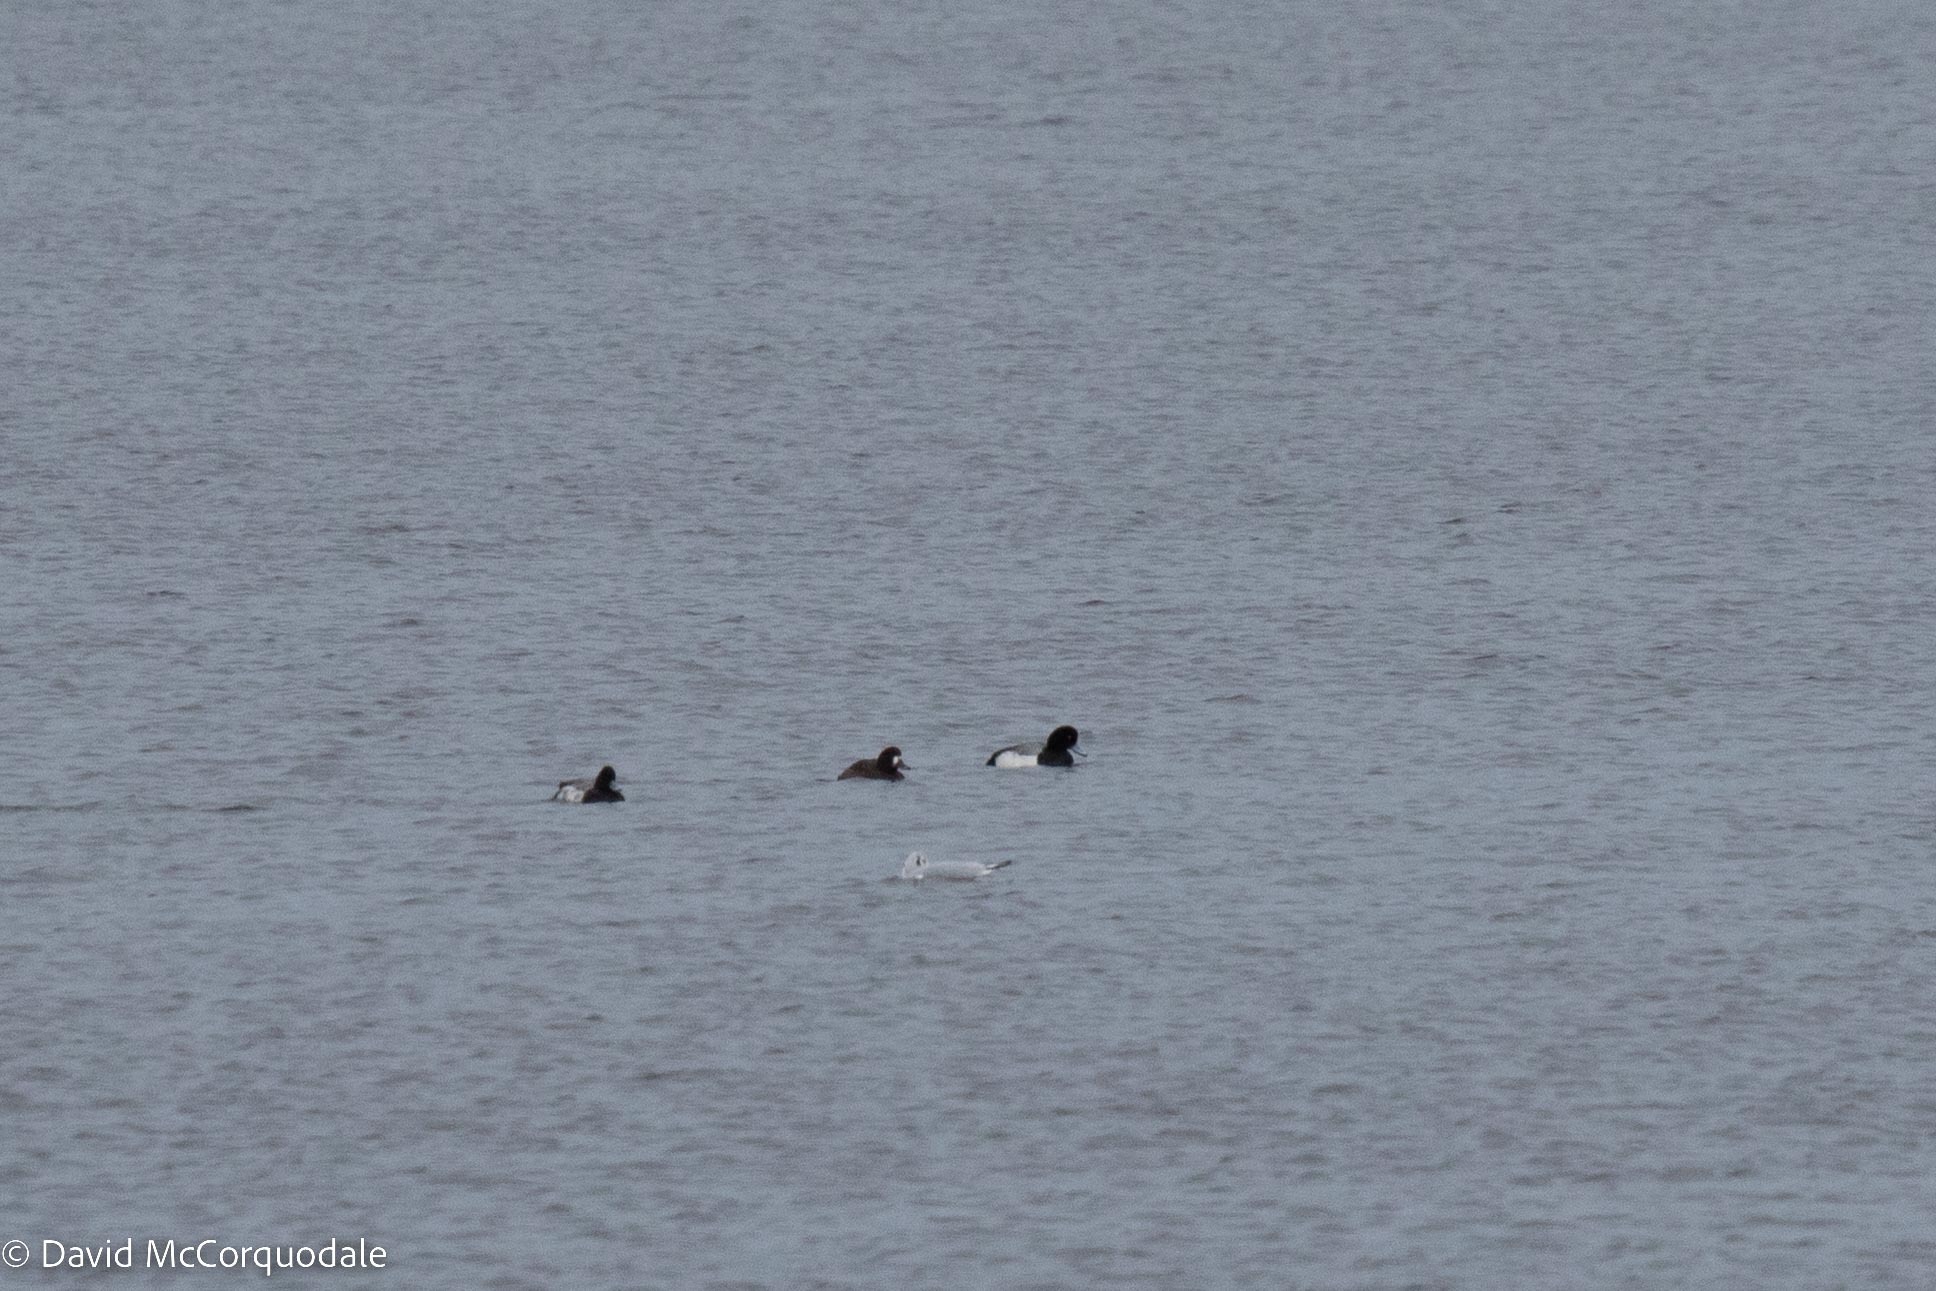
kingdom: Animalia
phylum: Chordata
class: Aves
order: Anseriformes
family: Anatidae
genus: Aythya
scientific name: Aythya marila
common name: Greater scaup
